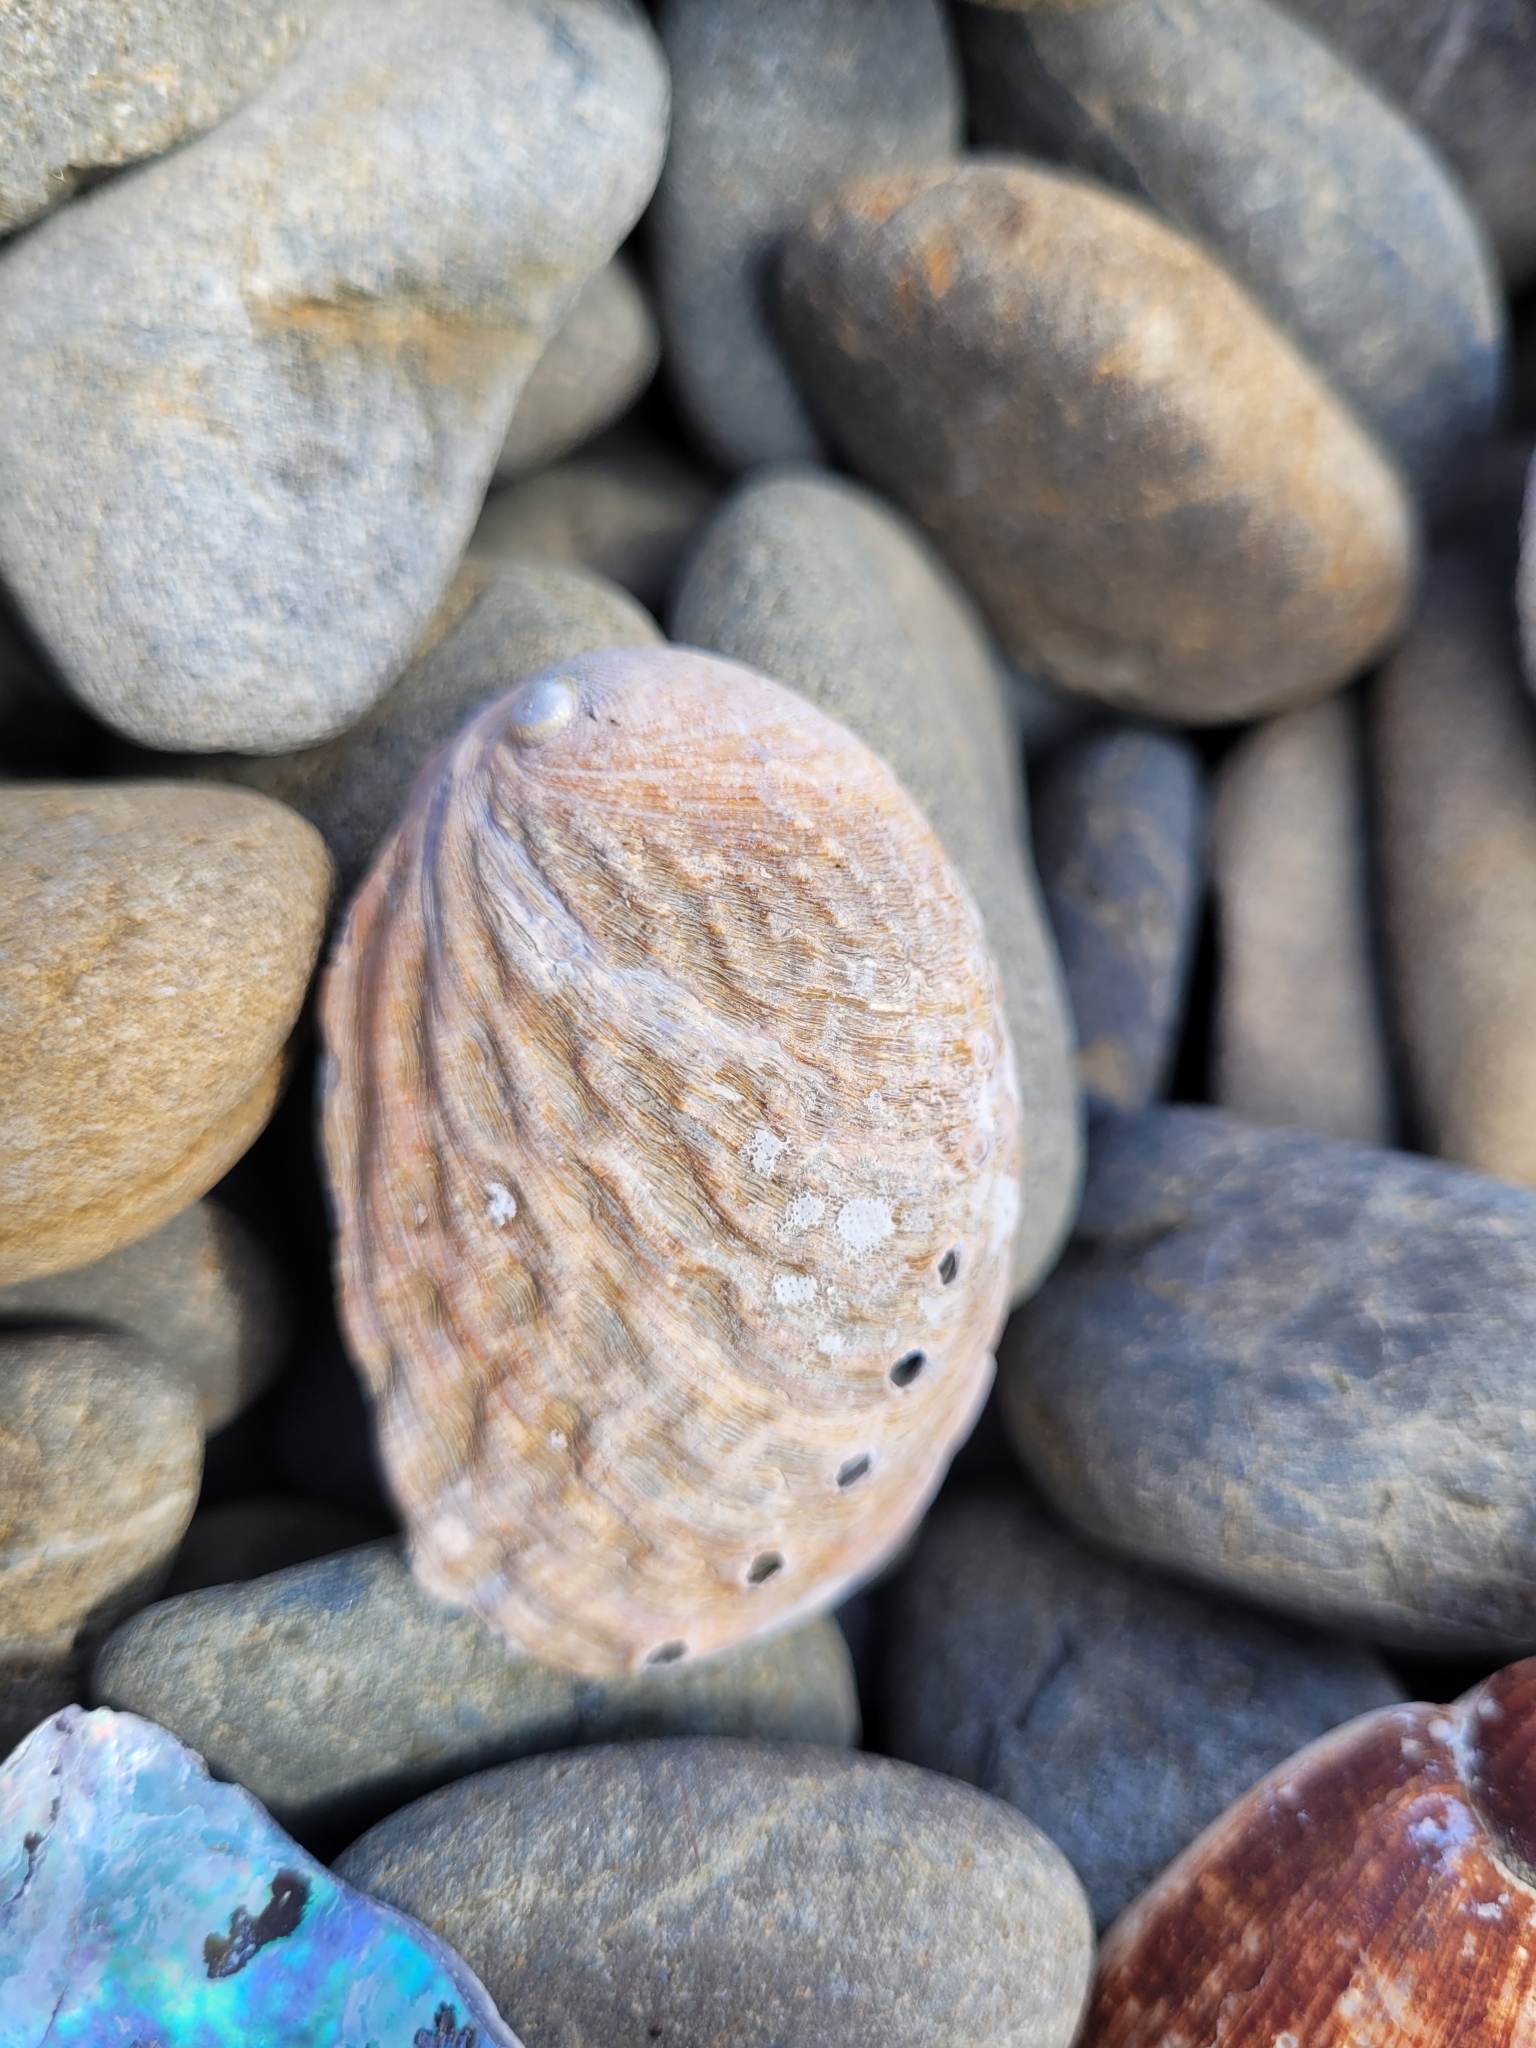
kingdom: Animalia
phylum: Mollusca
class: Gastropoda
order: Lepetellida
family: Haliotidae
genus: Haliotis
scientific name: Haliotis iris
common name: Abalone
